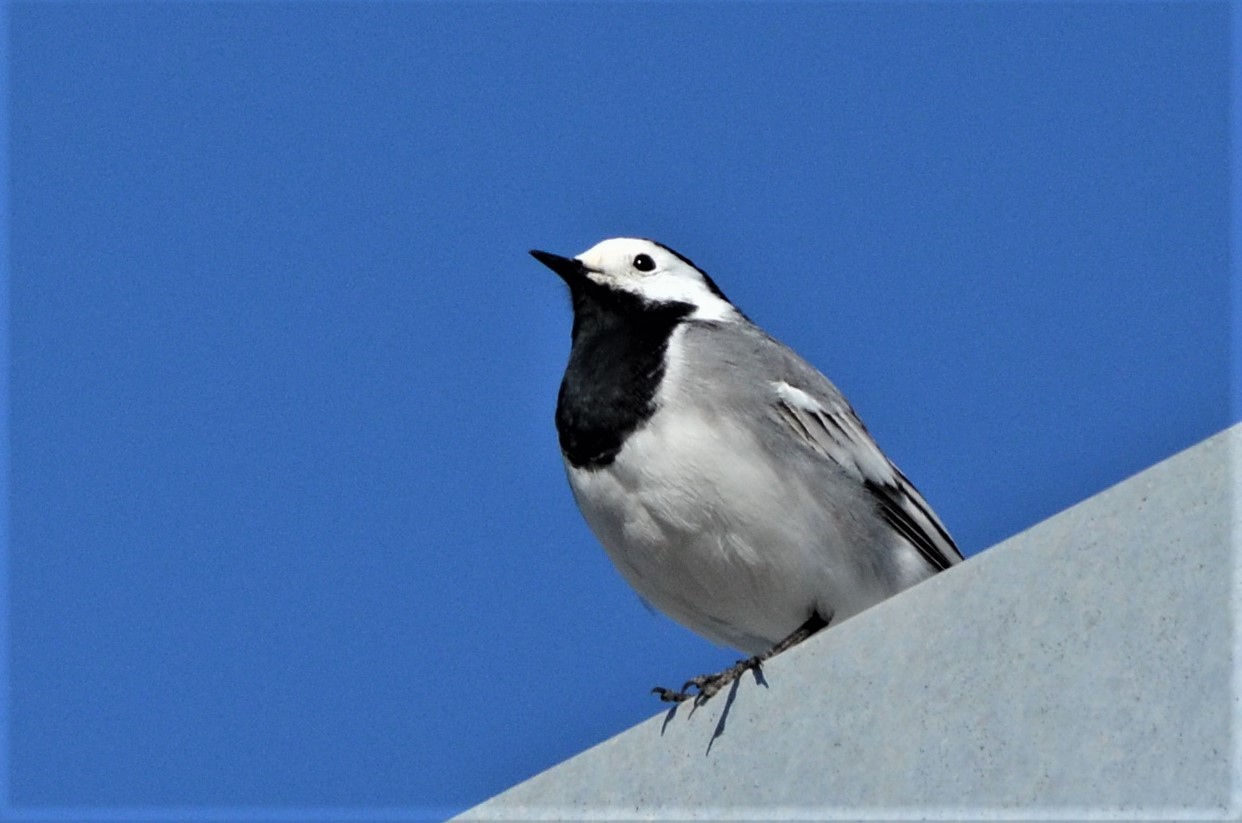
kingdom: Animalia
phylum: Chordata
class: Aves
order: Passeriformes
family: Motacillidae
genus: Motacilla
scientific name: Motacilla alba
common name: White wagtail
